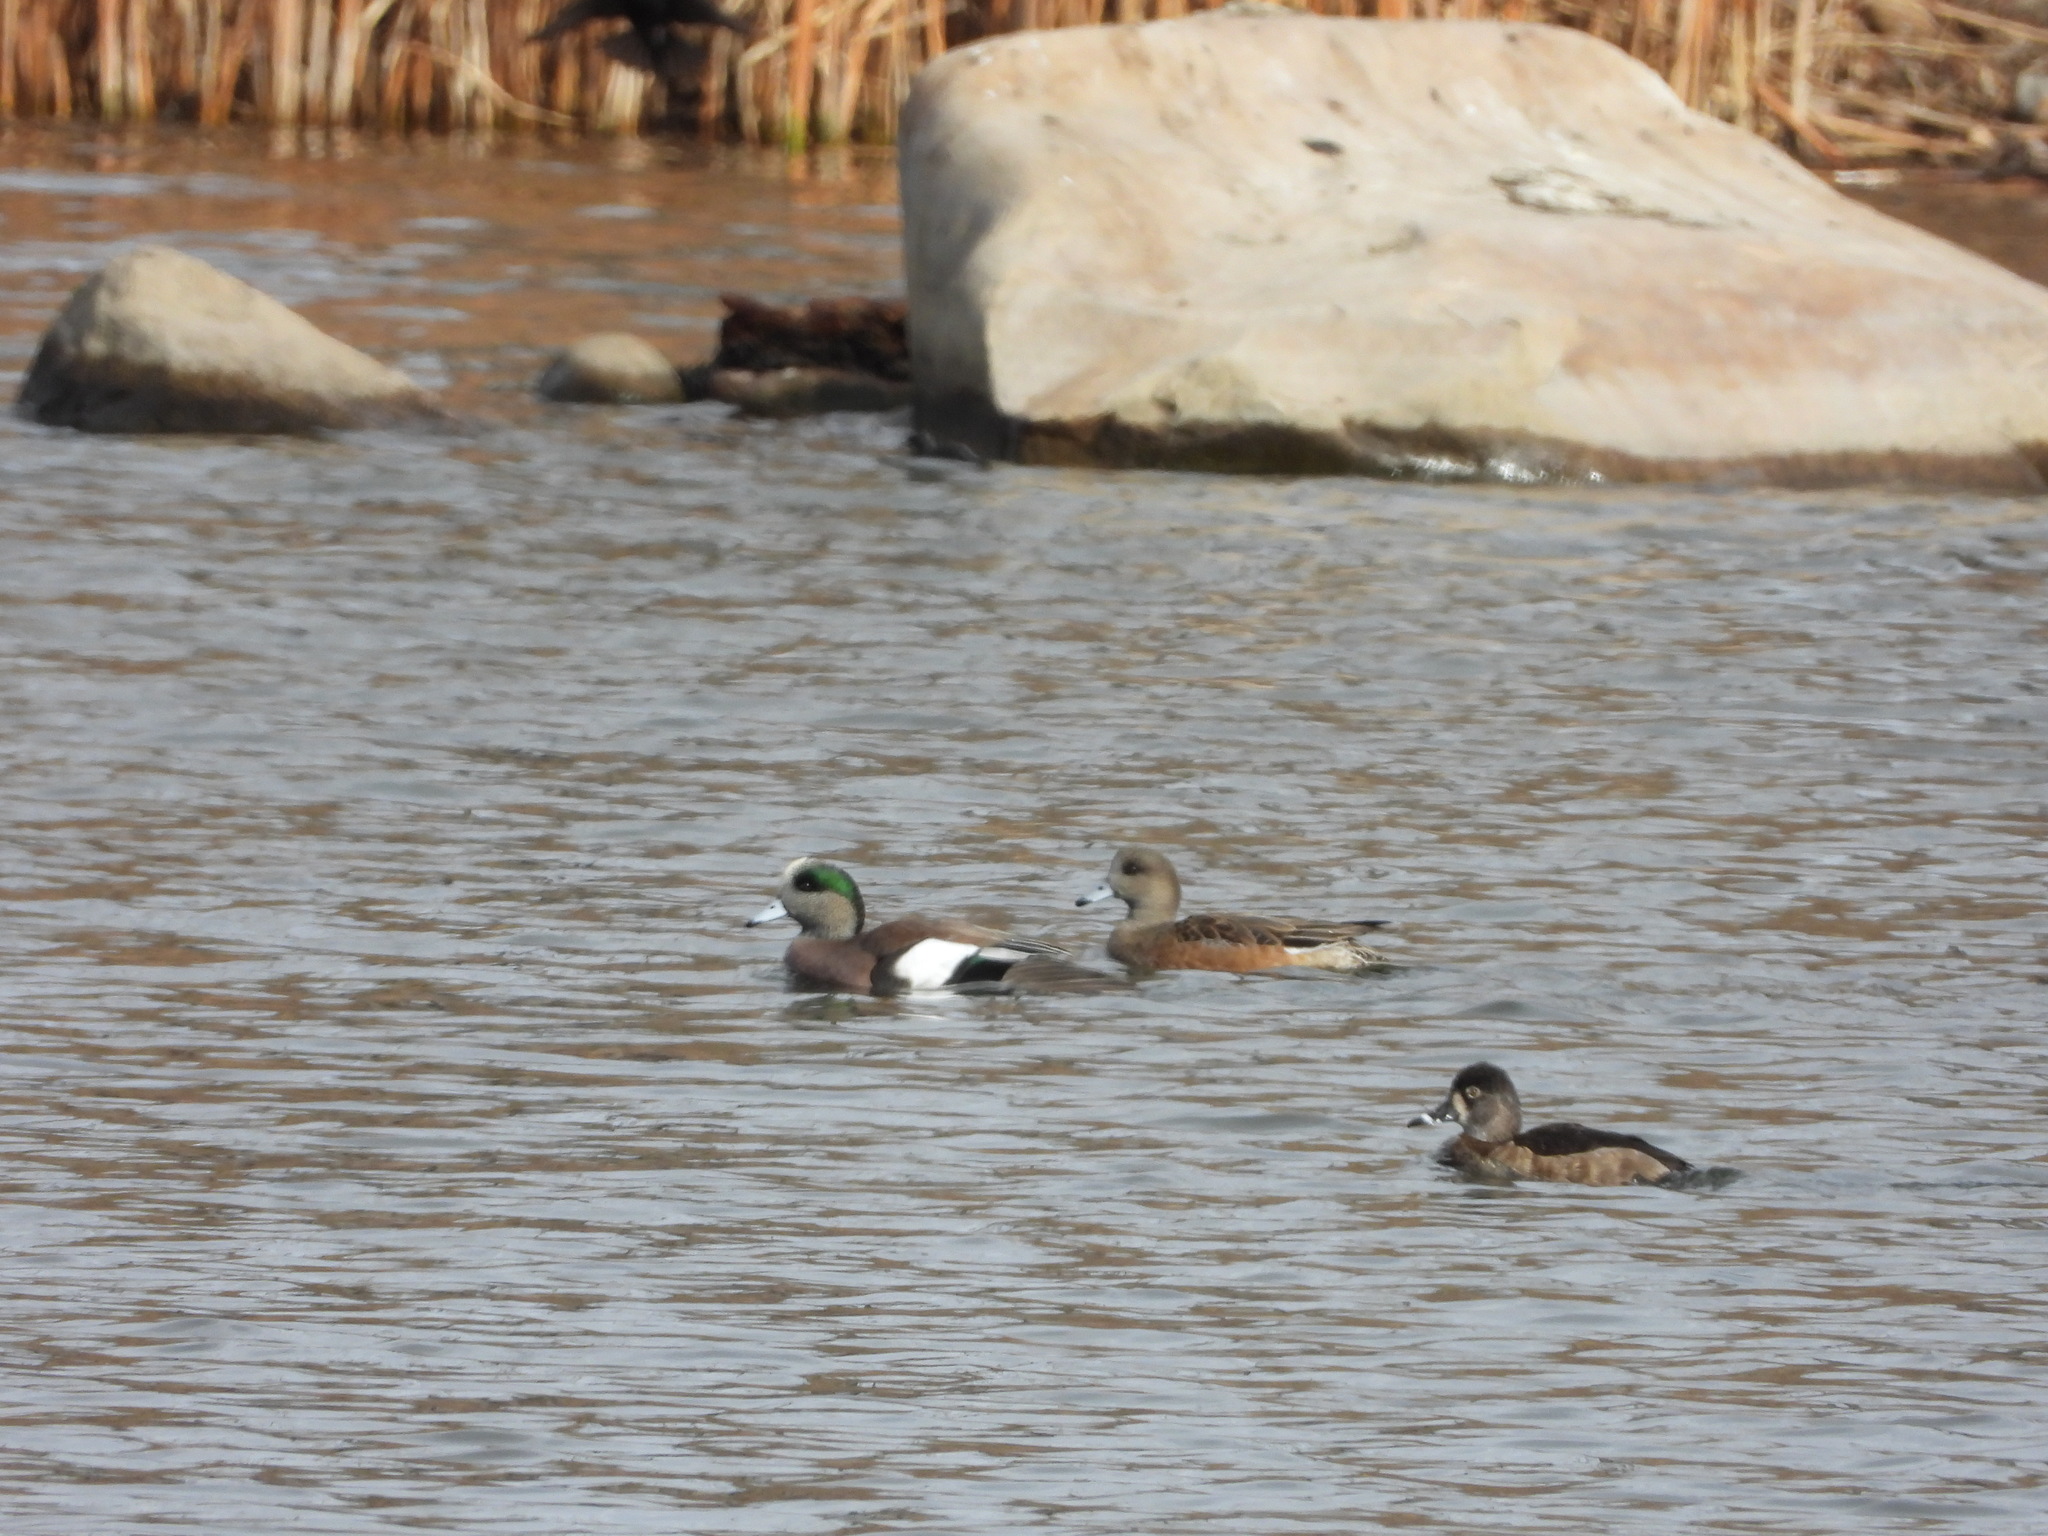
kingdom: Animalia
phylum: Chordata
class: Aves
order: Anseriformes
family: Anatidae
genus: Aythya
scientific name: Aythya collaris
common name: Ring-necked duck
